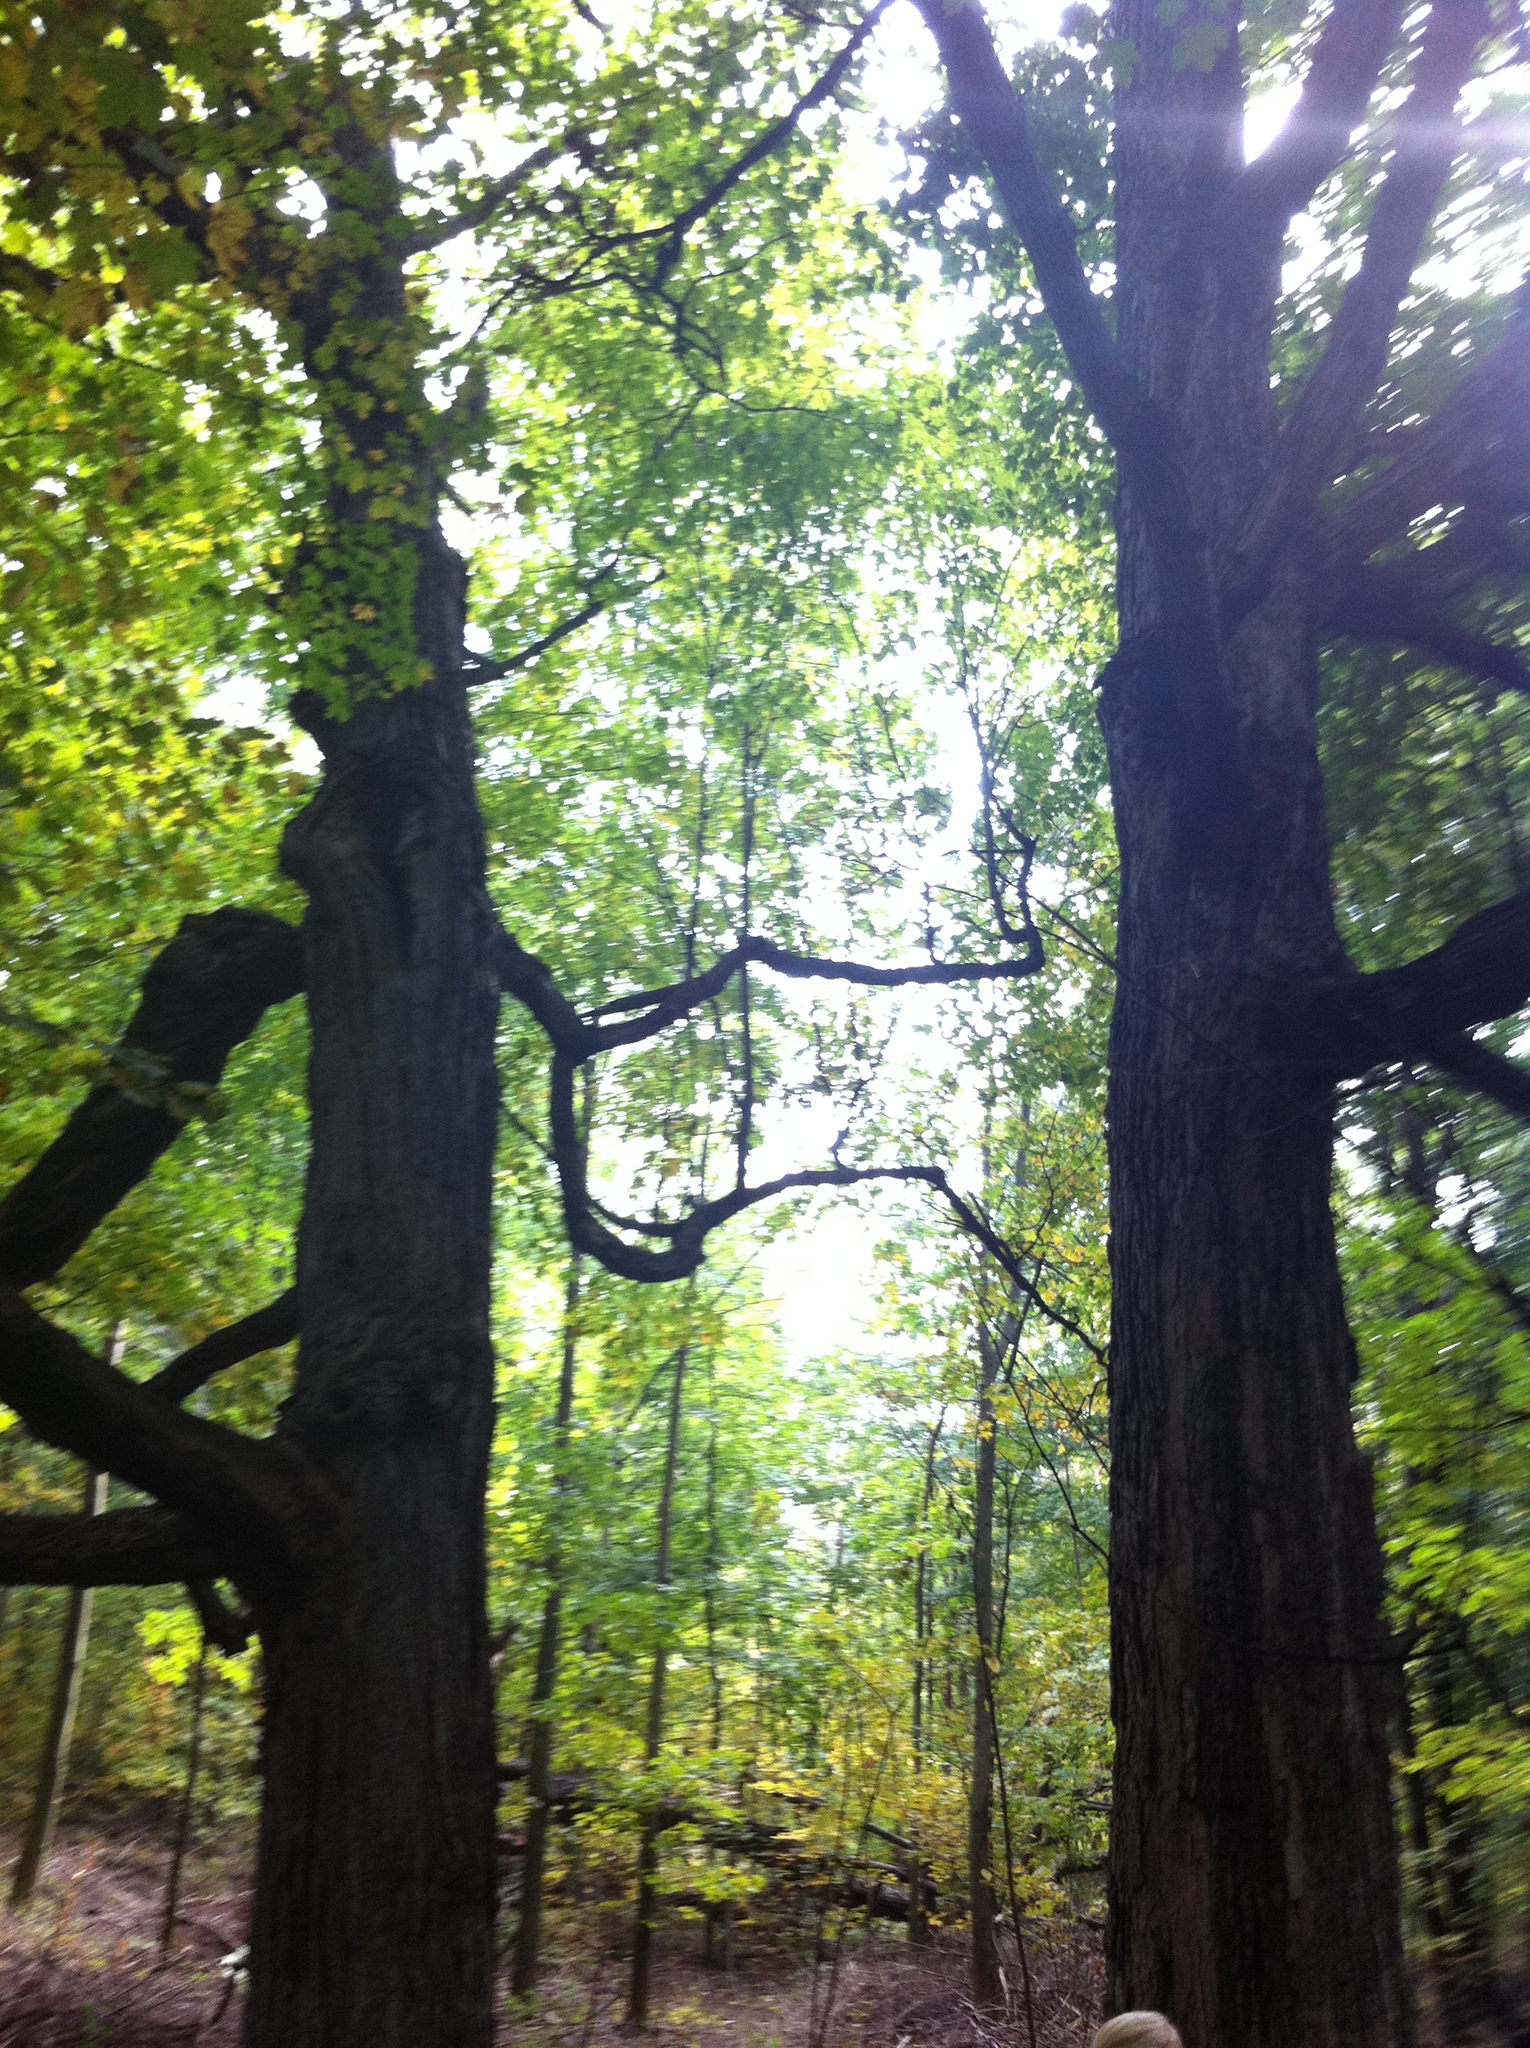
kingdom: Plantae
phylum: Tracheophyta
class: Magnoliopsida
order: Sapindales
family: Sapindaceae
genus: Acer
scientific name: Acer saccharum
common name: Sugar maple
